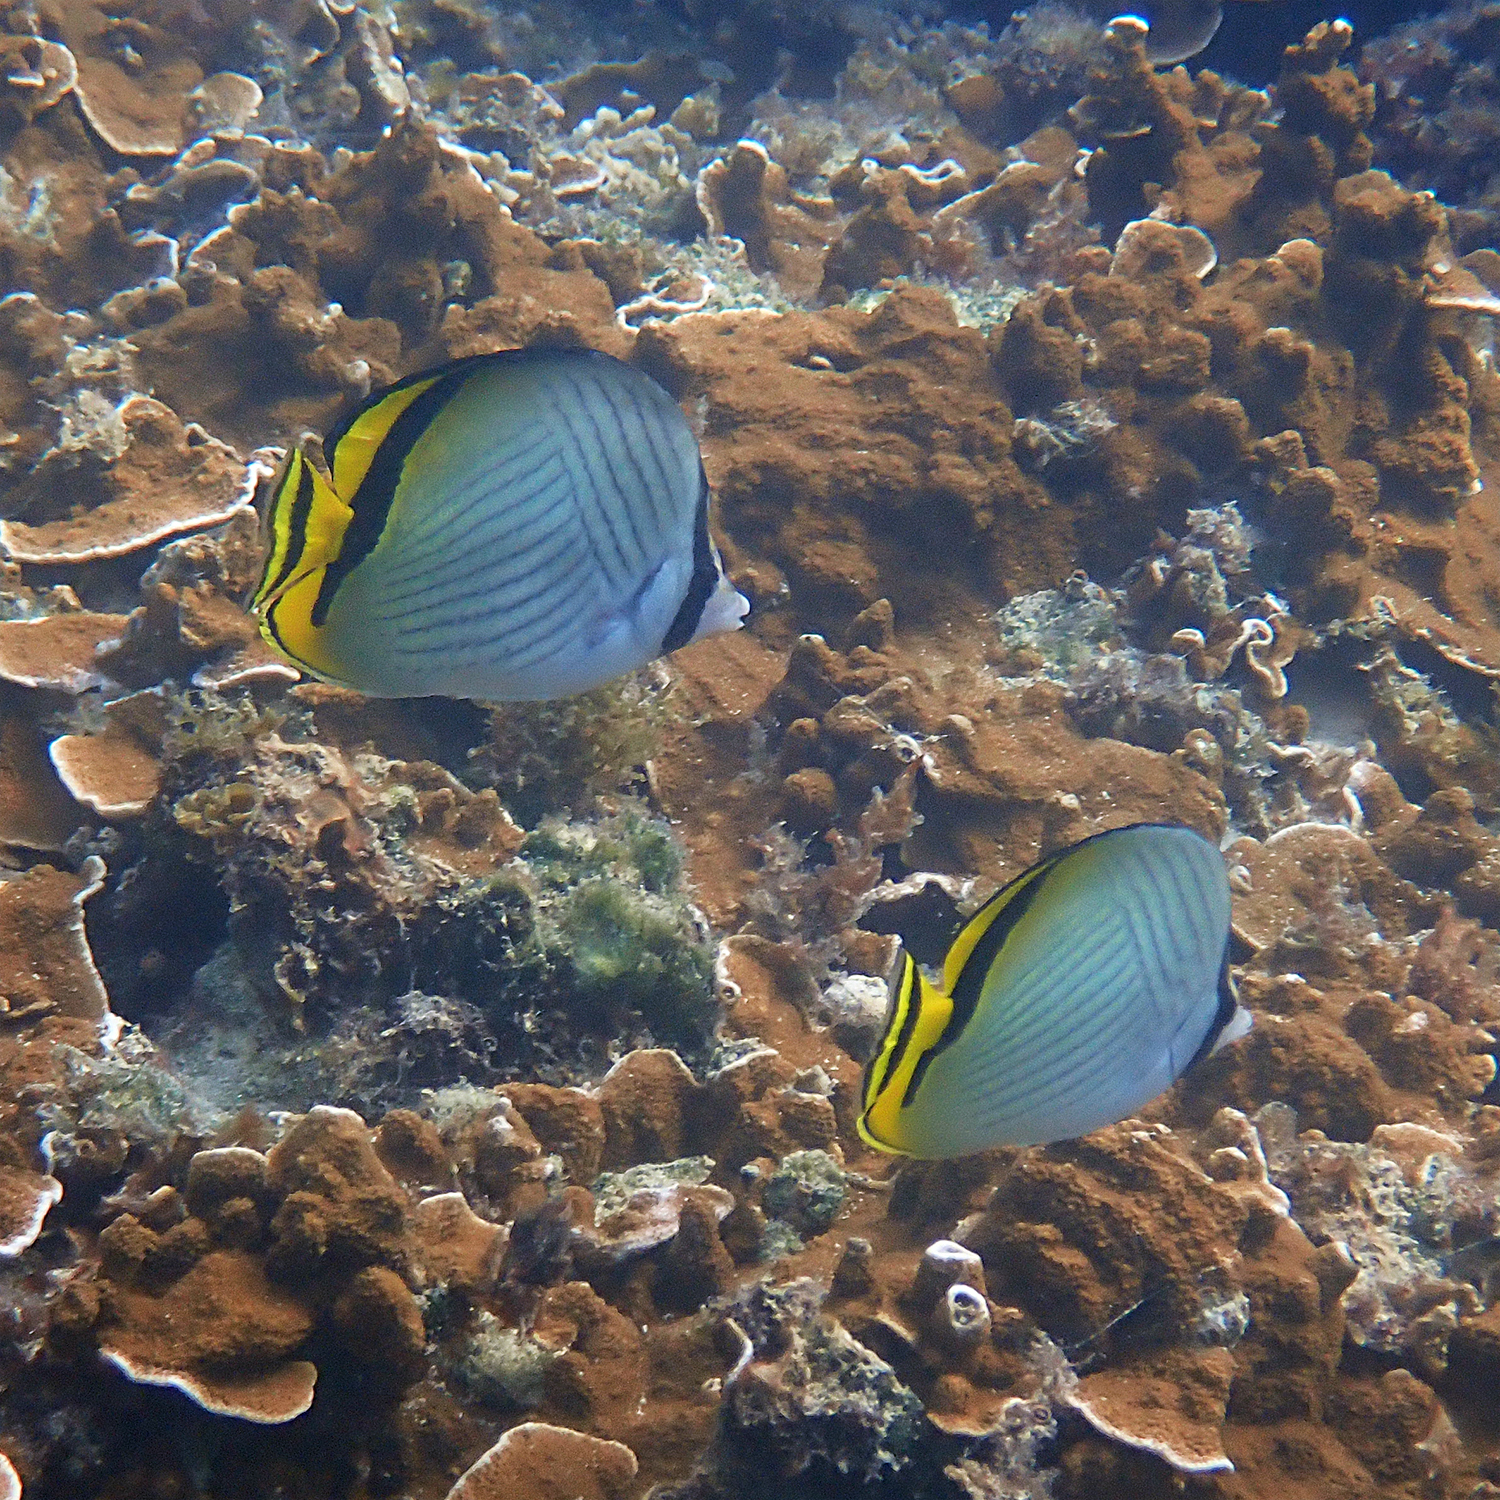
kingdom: Animalia
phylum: Chordata
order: Perciformes
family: Chaetodontidae
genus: Chaetodon
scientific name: Chaetodon vagabundus
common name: Vagabond butterflyfish
